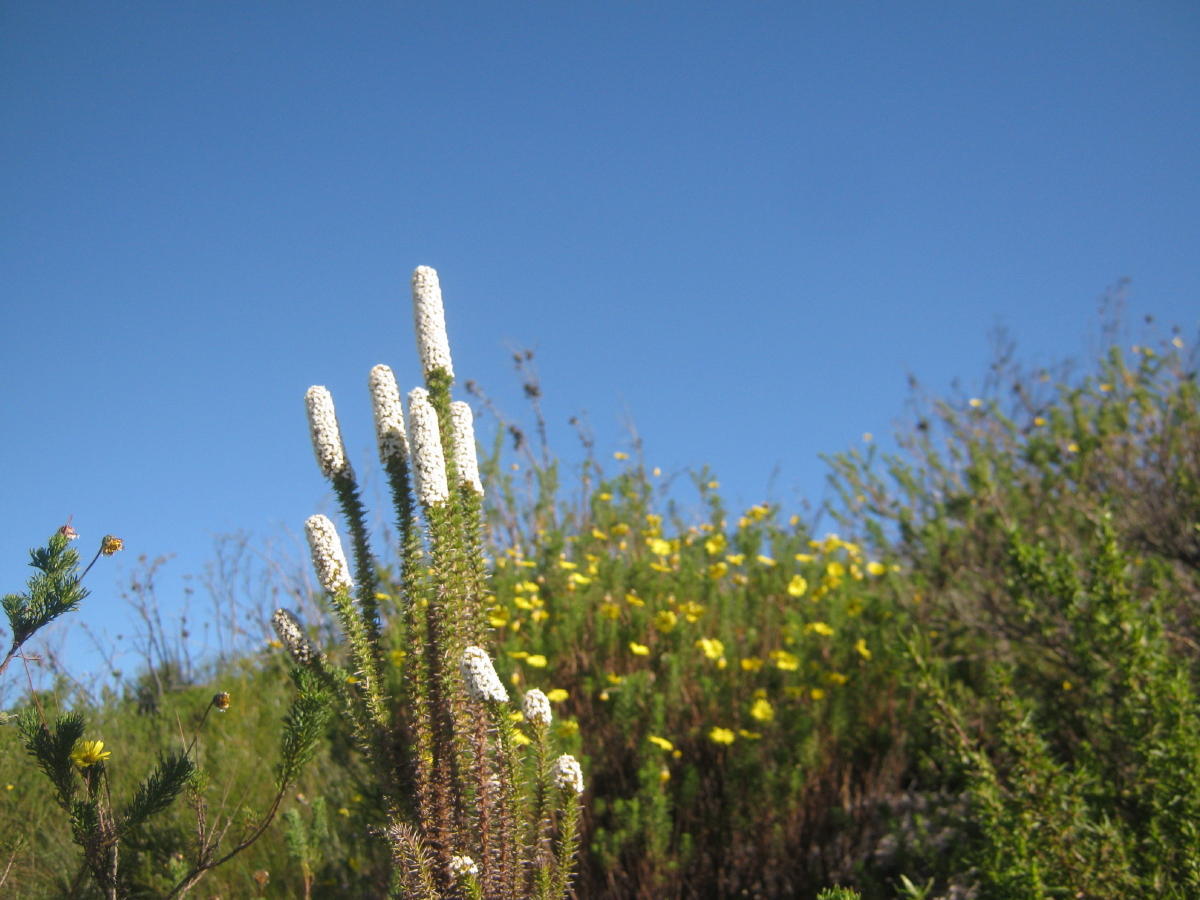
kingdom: Plantae
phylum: Tracheophyta
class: Magnoliopsida
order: Asterales
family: Asteraceae
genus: Stoebe
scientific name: Stoebe alopecuroides
